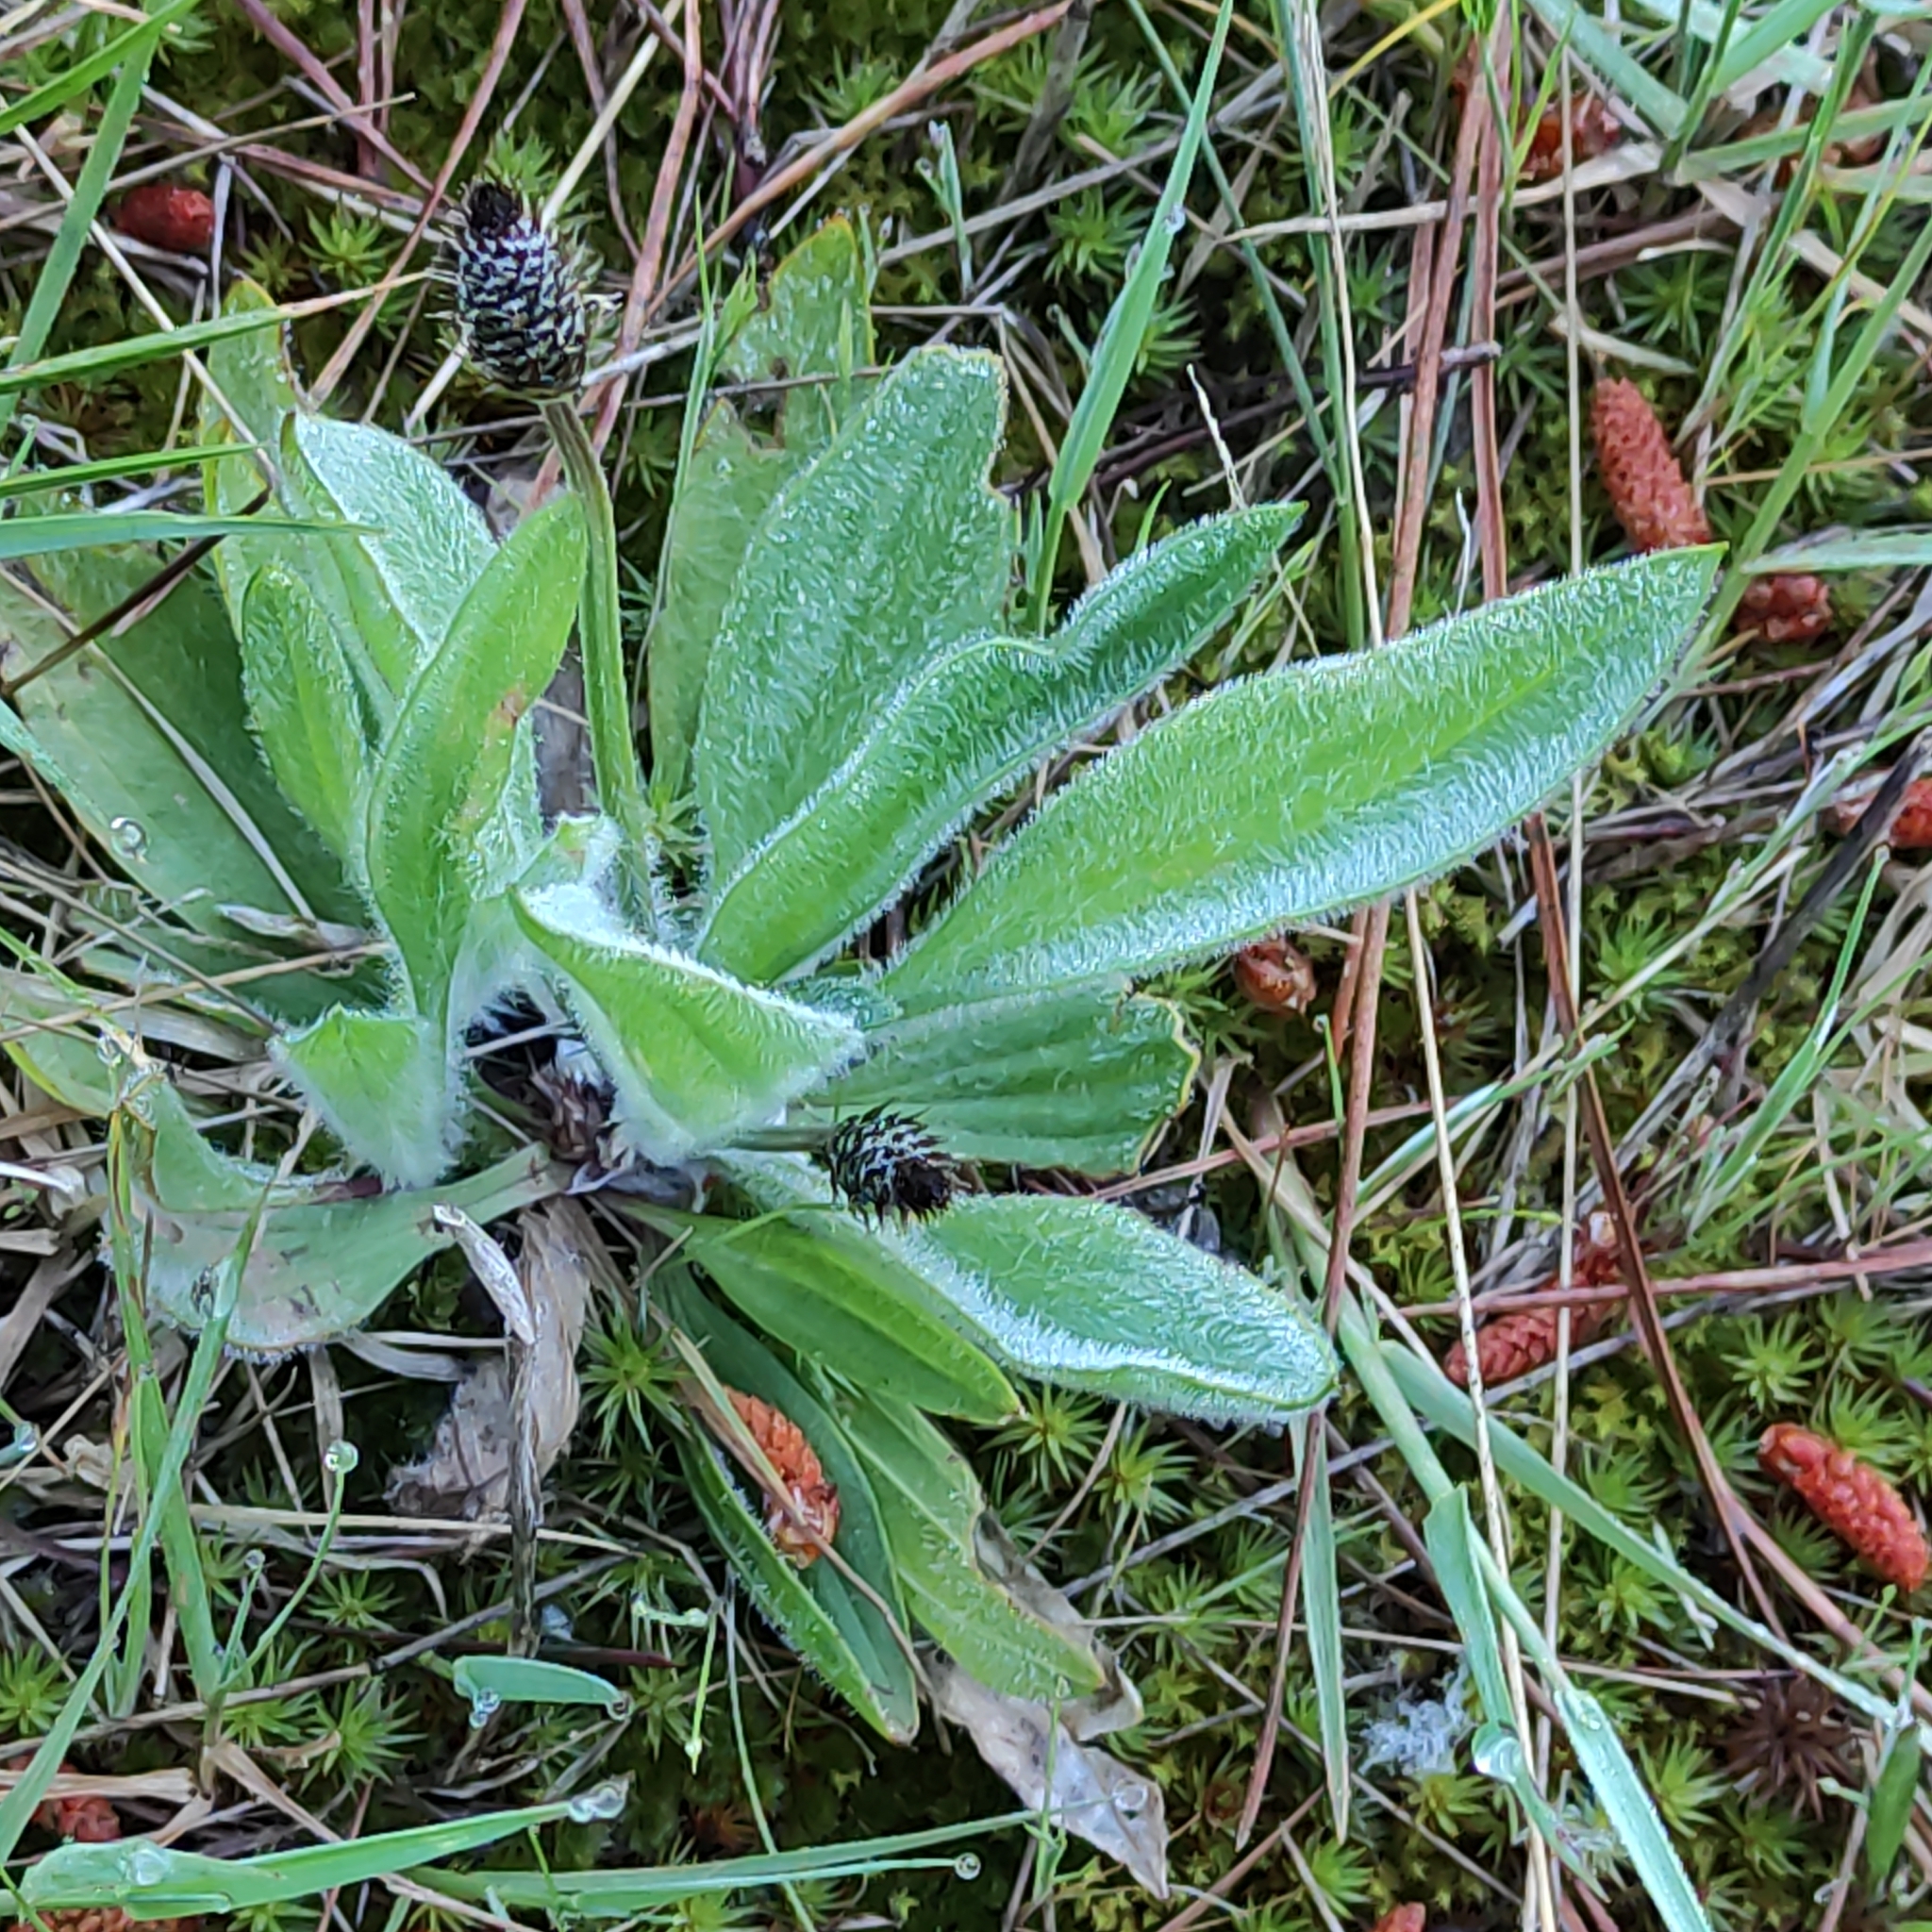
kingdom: Plantae
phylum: Tracheophyta
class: Magnoliopsida
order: Lamiales
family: Plantaginaceae
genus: Plantago
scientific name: Plantago lanceolata
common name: Ribwort plantain
